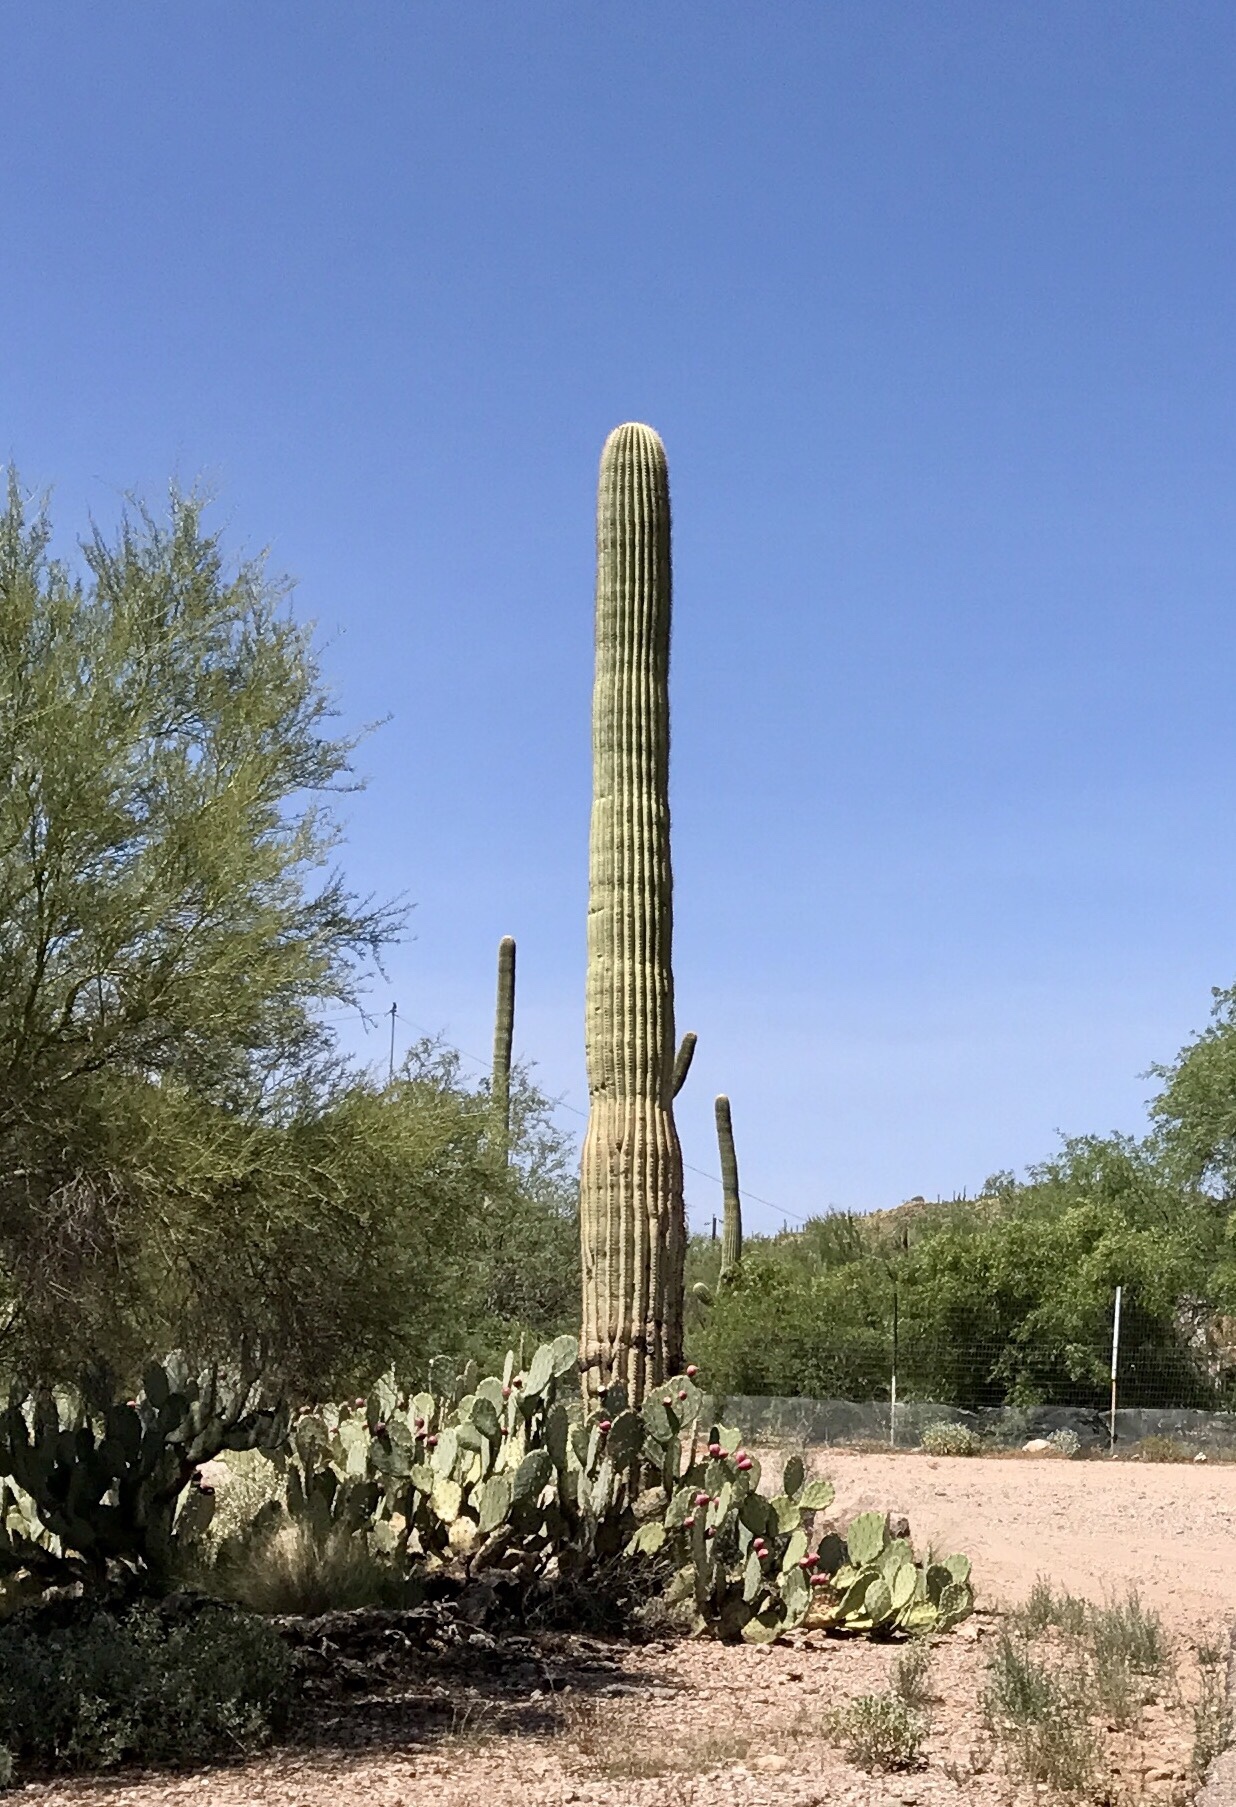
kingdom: Plantae
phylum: Tracheophyta
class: Magnoliopsida
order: Caryophyllales
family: Cactaceae
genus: Carnegiea
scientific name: Carnegiea gigantea
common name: Saguaro
